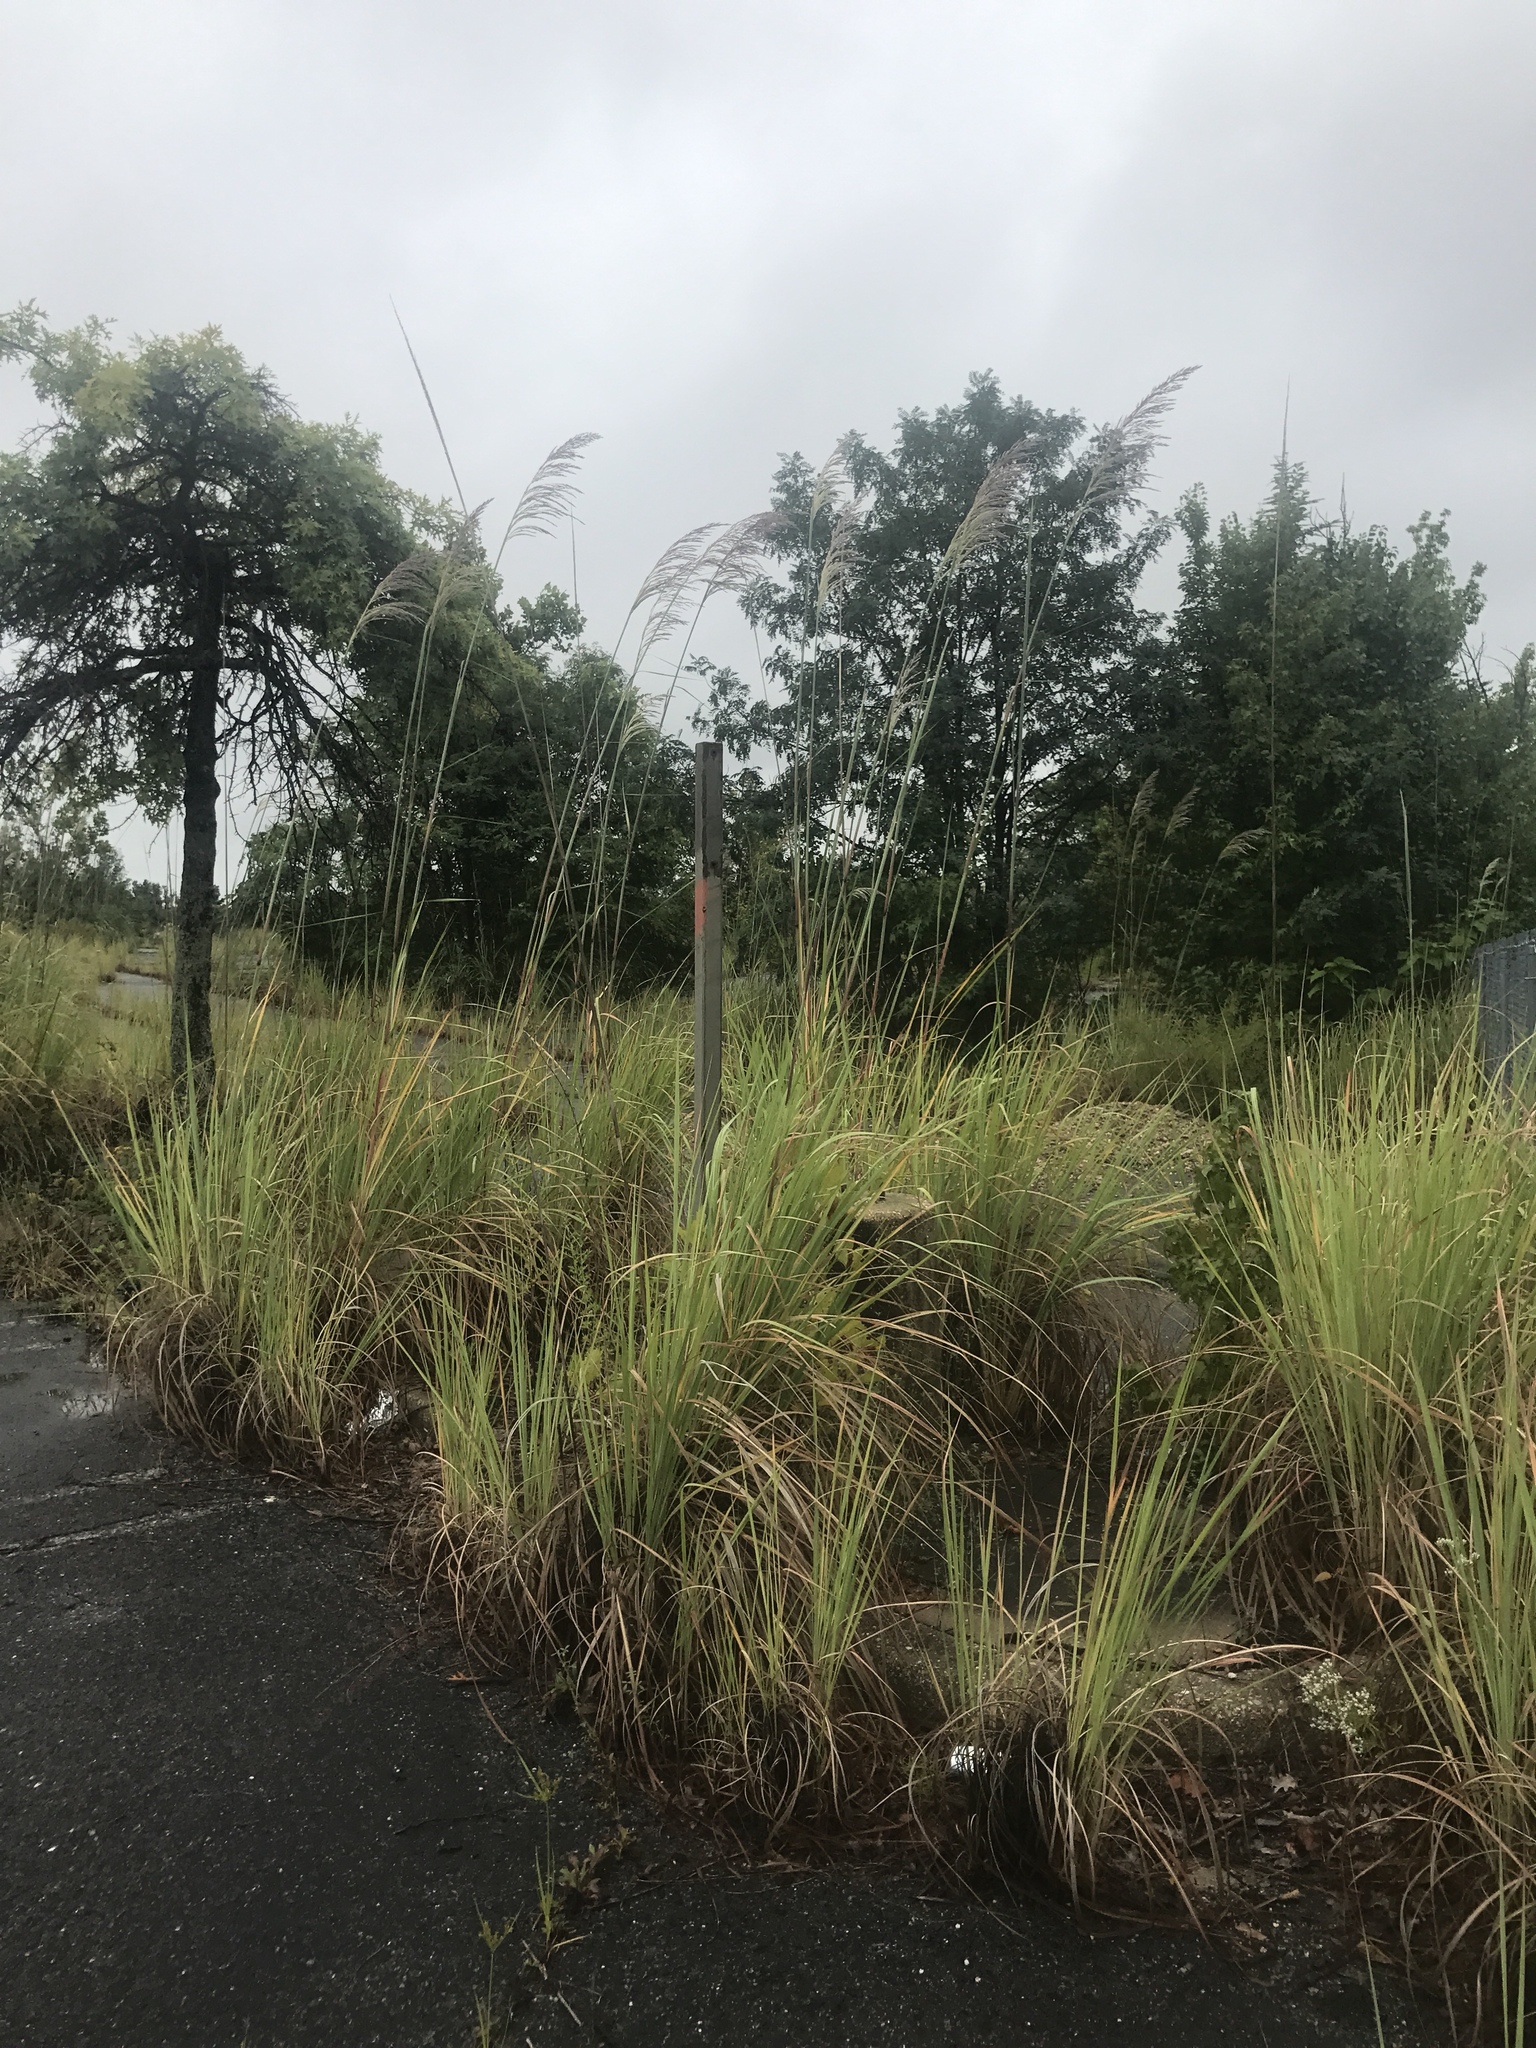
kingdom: Plantae
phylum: Tracheophyta
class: Liliopsida
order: Poales
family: Poaceae
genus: Tripidium
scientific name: Tripidium ravennae
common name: Ravenna grass
